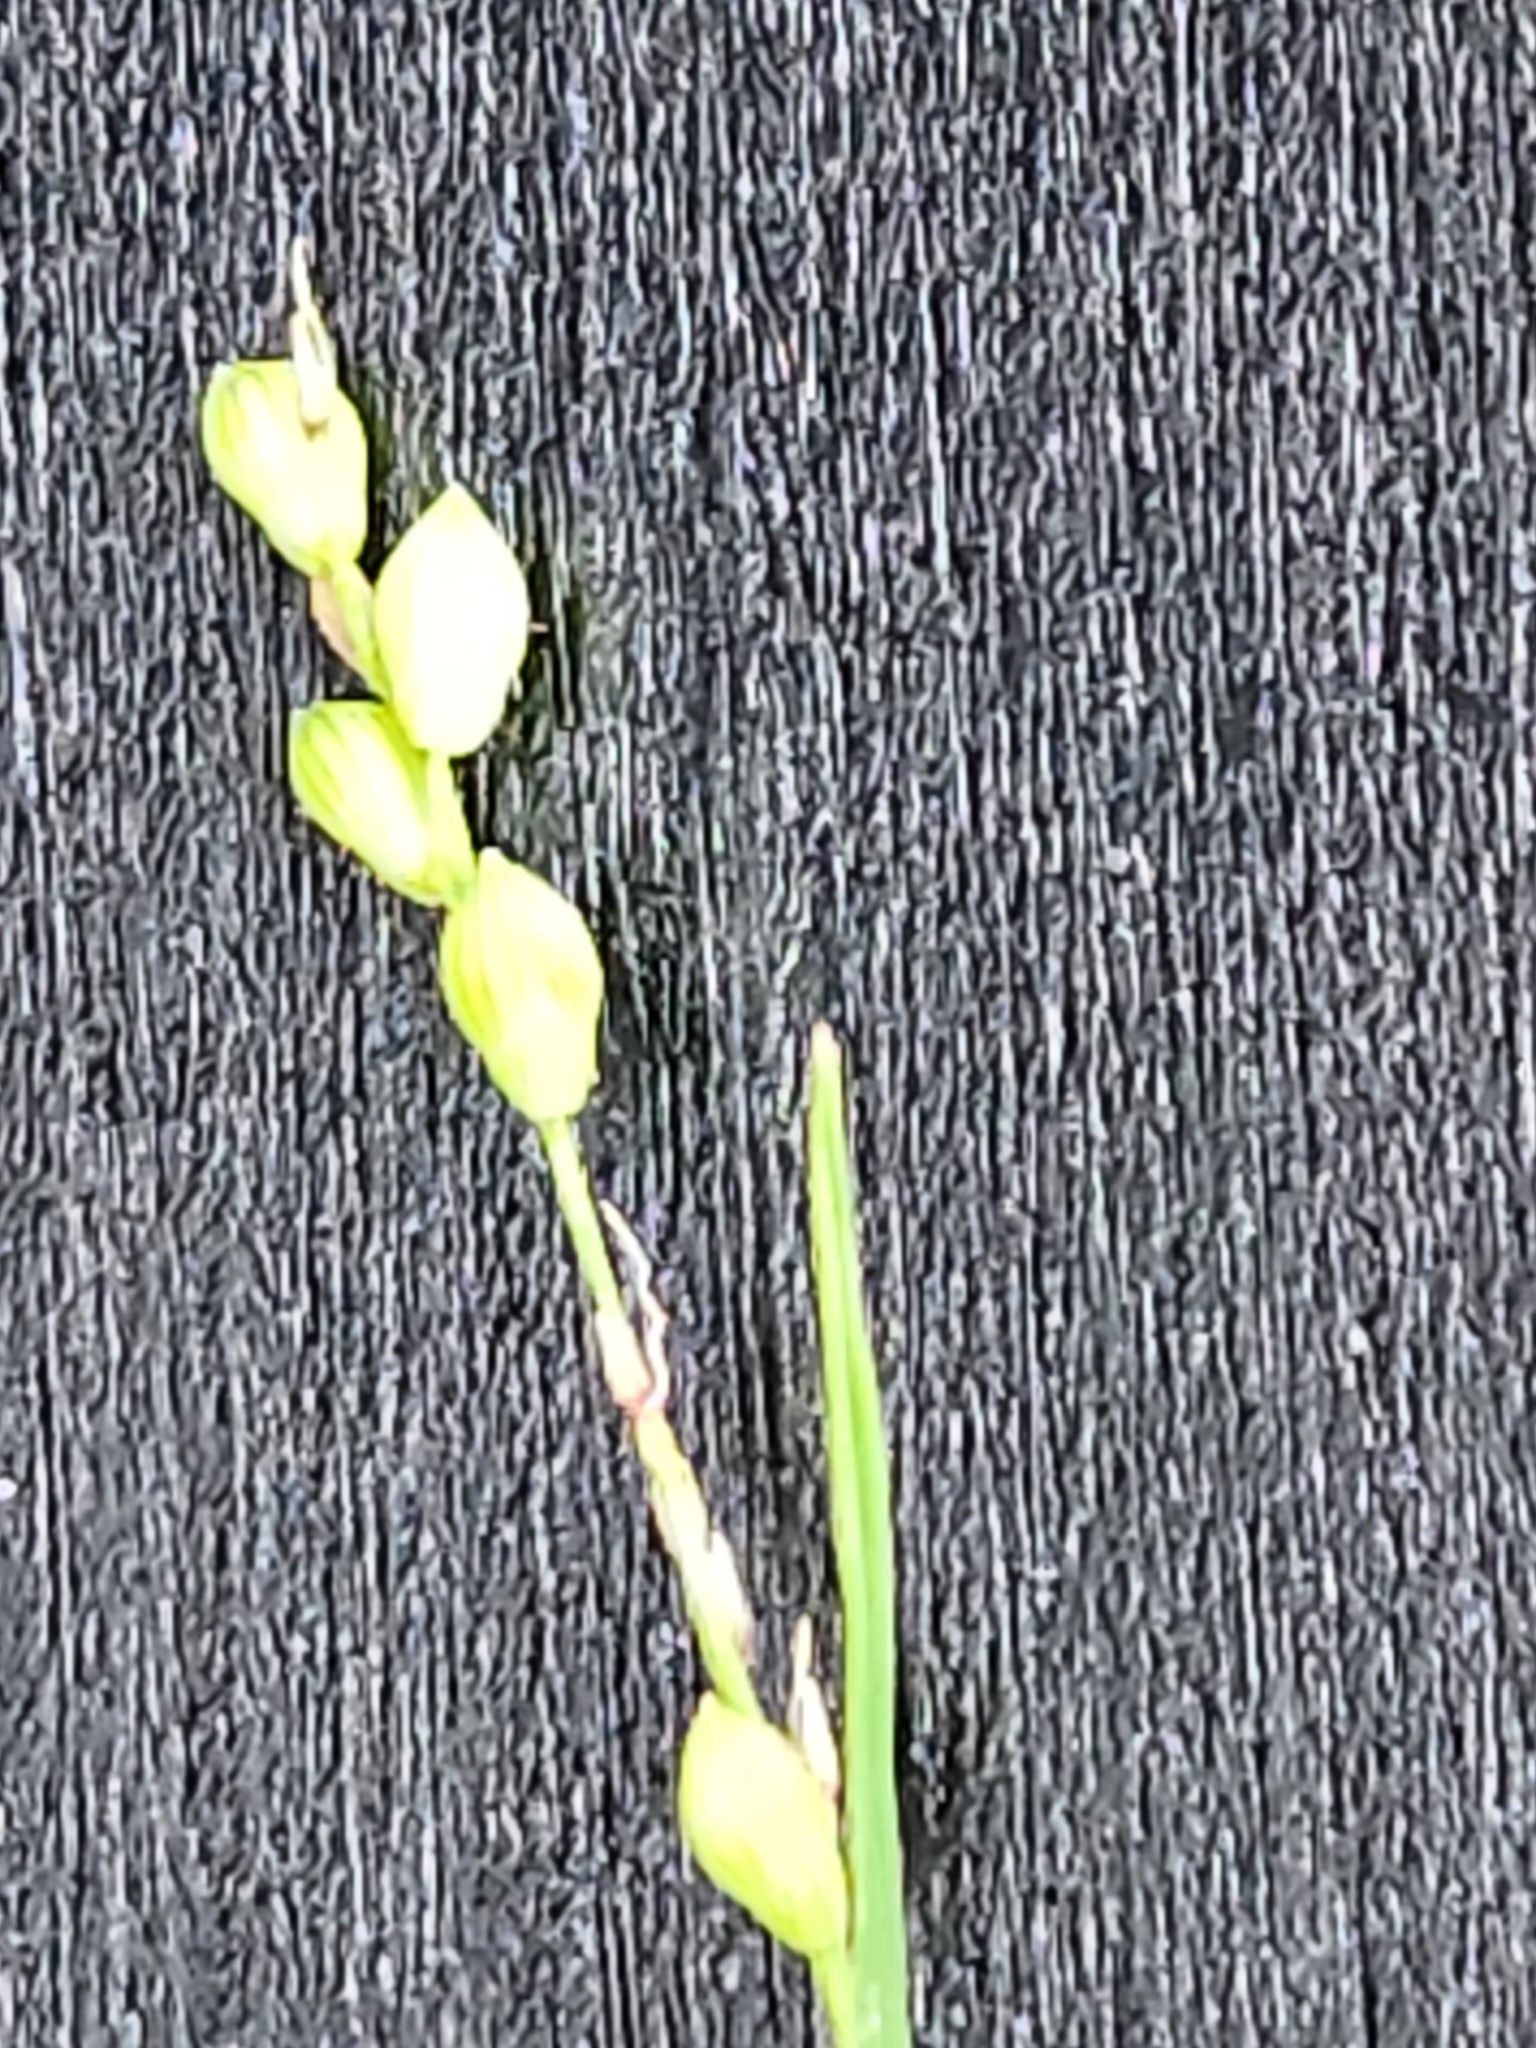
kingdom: Plantae
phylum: Tracheophyta
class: Liliopsida
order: Poales
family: Poaceae
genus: Setaria
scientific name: Setaria reverchonii
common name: Reverchon's bristle grass
